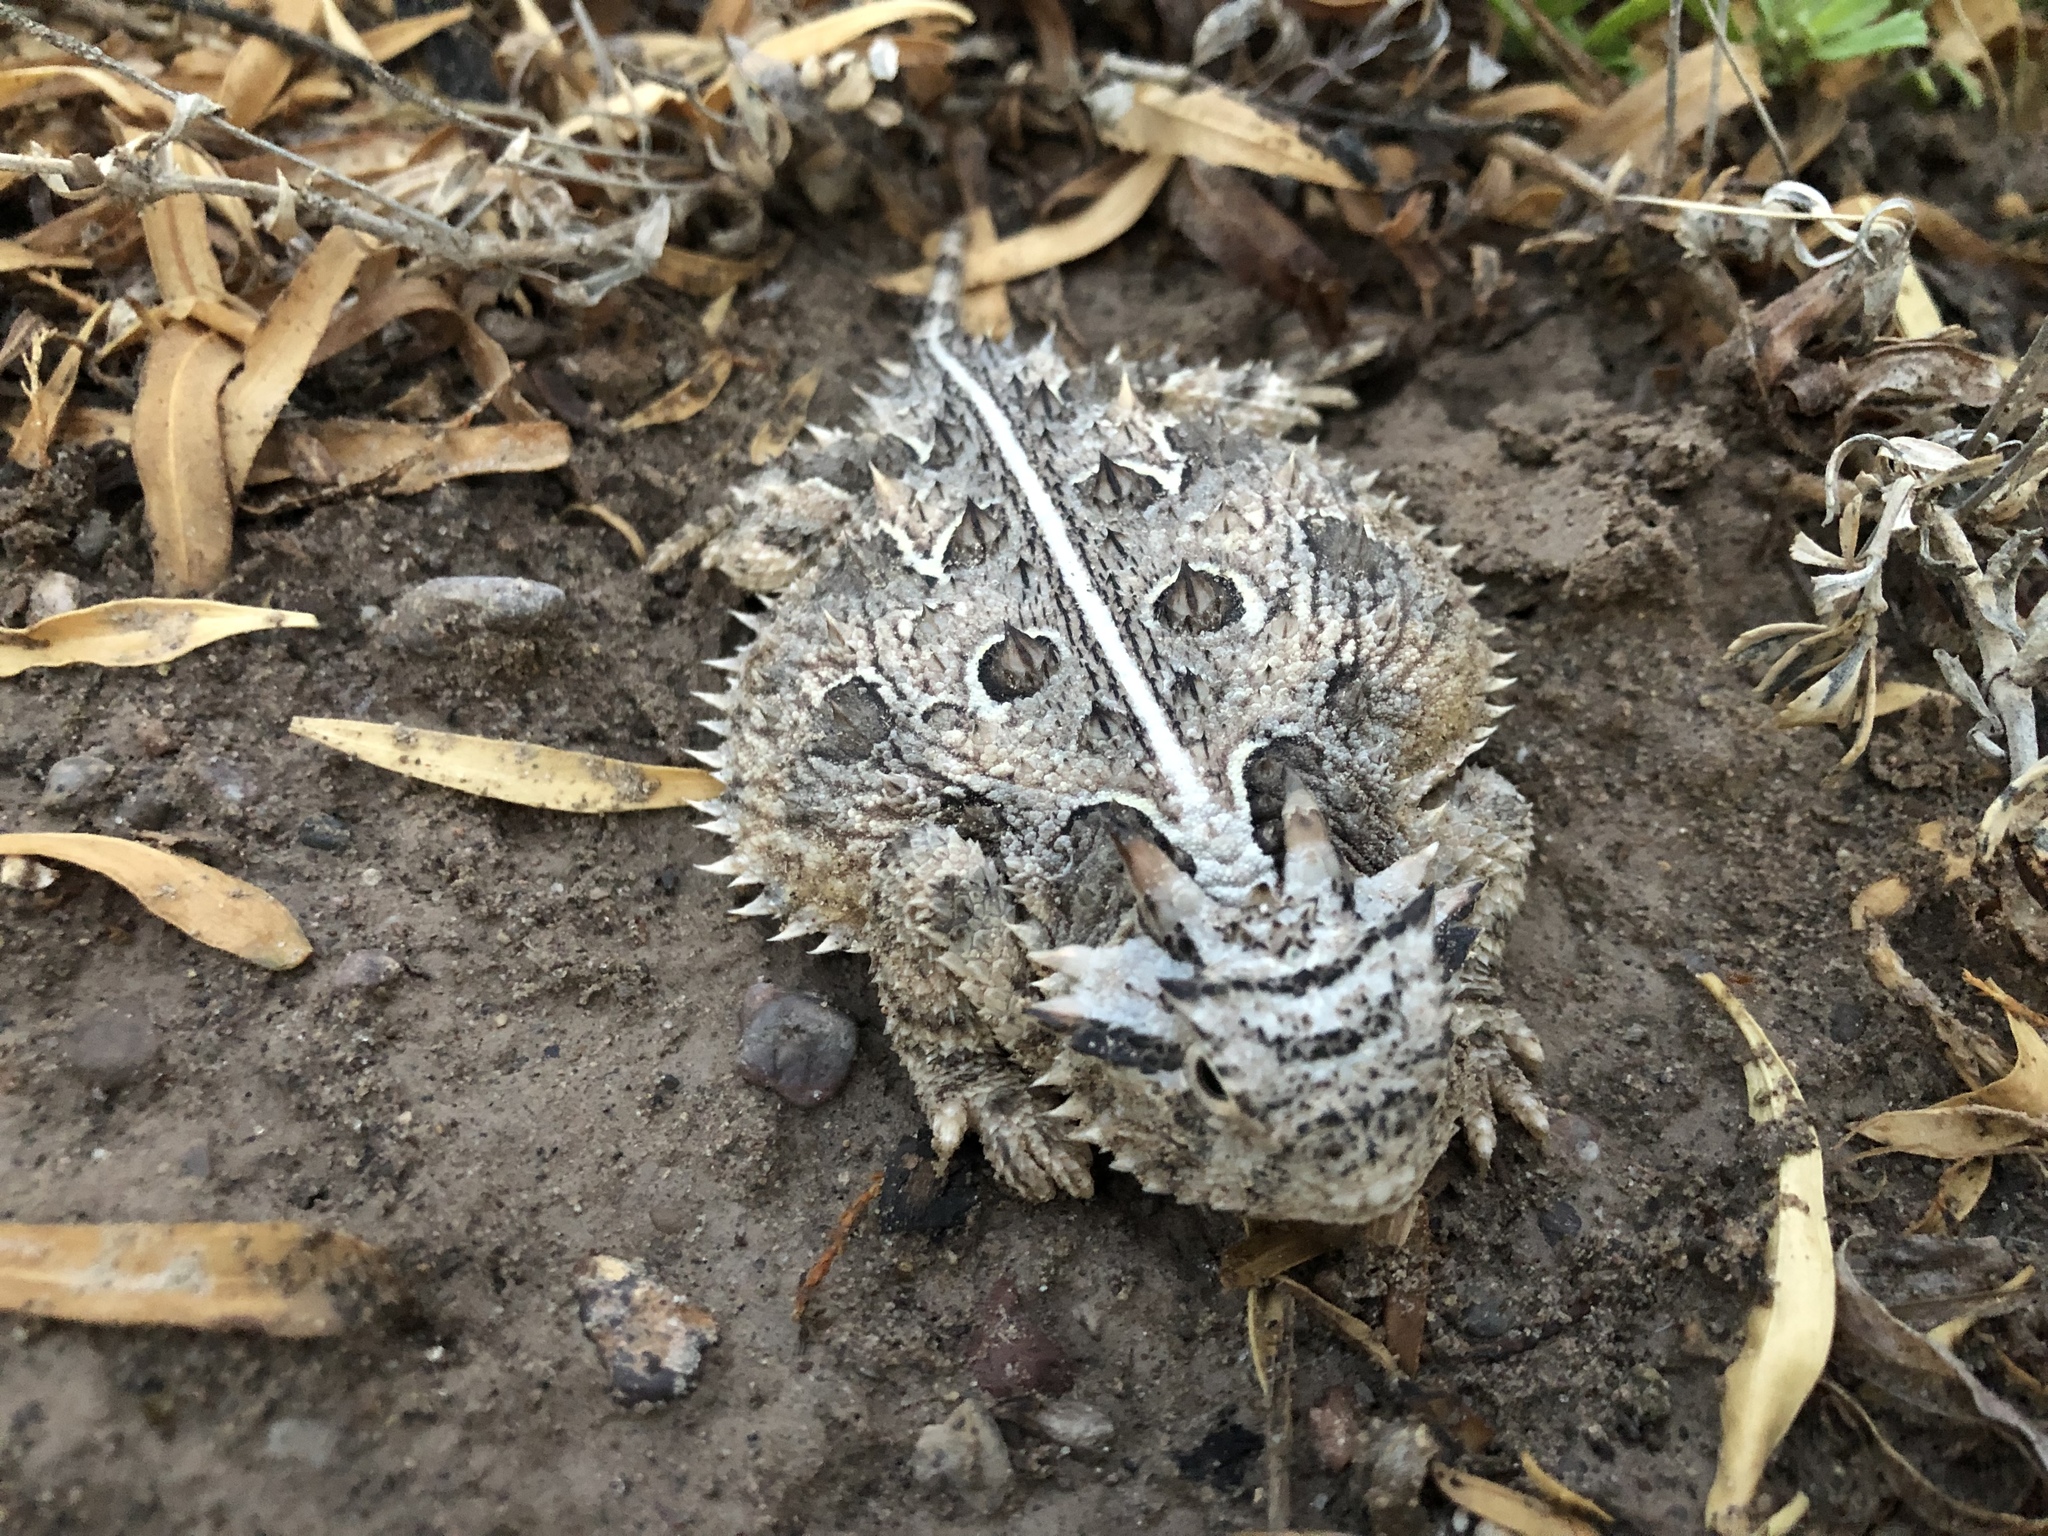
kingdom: Animalia
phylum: Chordata
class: Squamata
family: Phrynosomatidae
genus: Phrynosoma
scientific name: Phrynosoma cornutum
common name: Texas horned lizard
